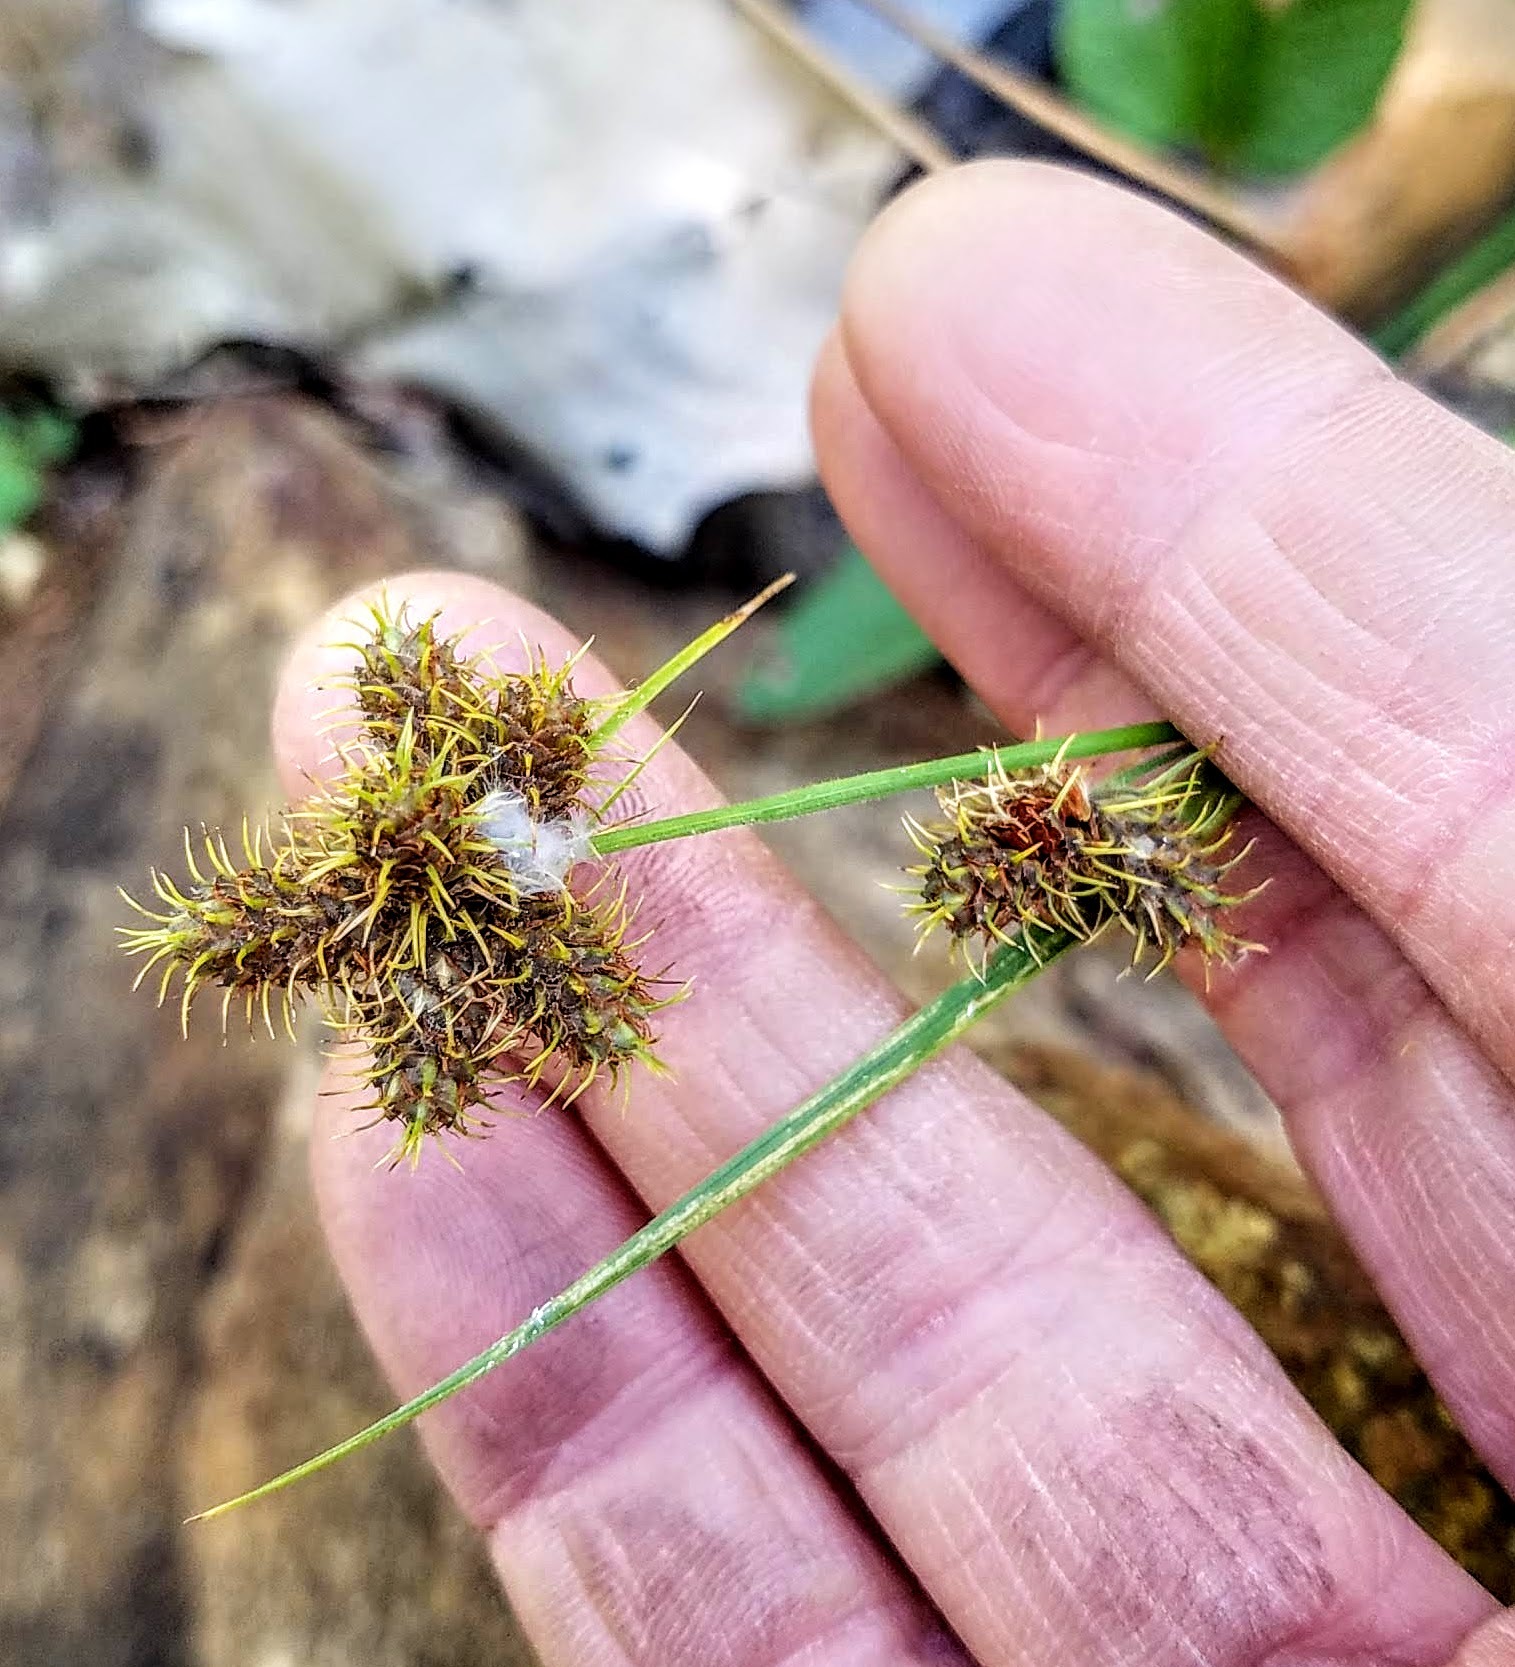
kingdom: Plantae
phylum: Tracheophyta
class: Liliopsida
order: Poales
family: Cyperaceae
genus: Fuirena
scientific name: Fuirena simplex
